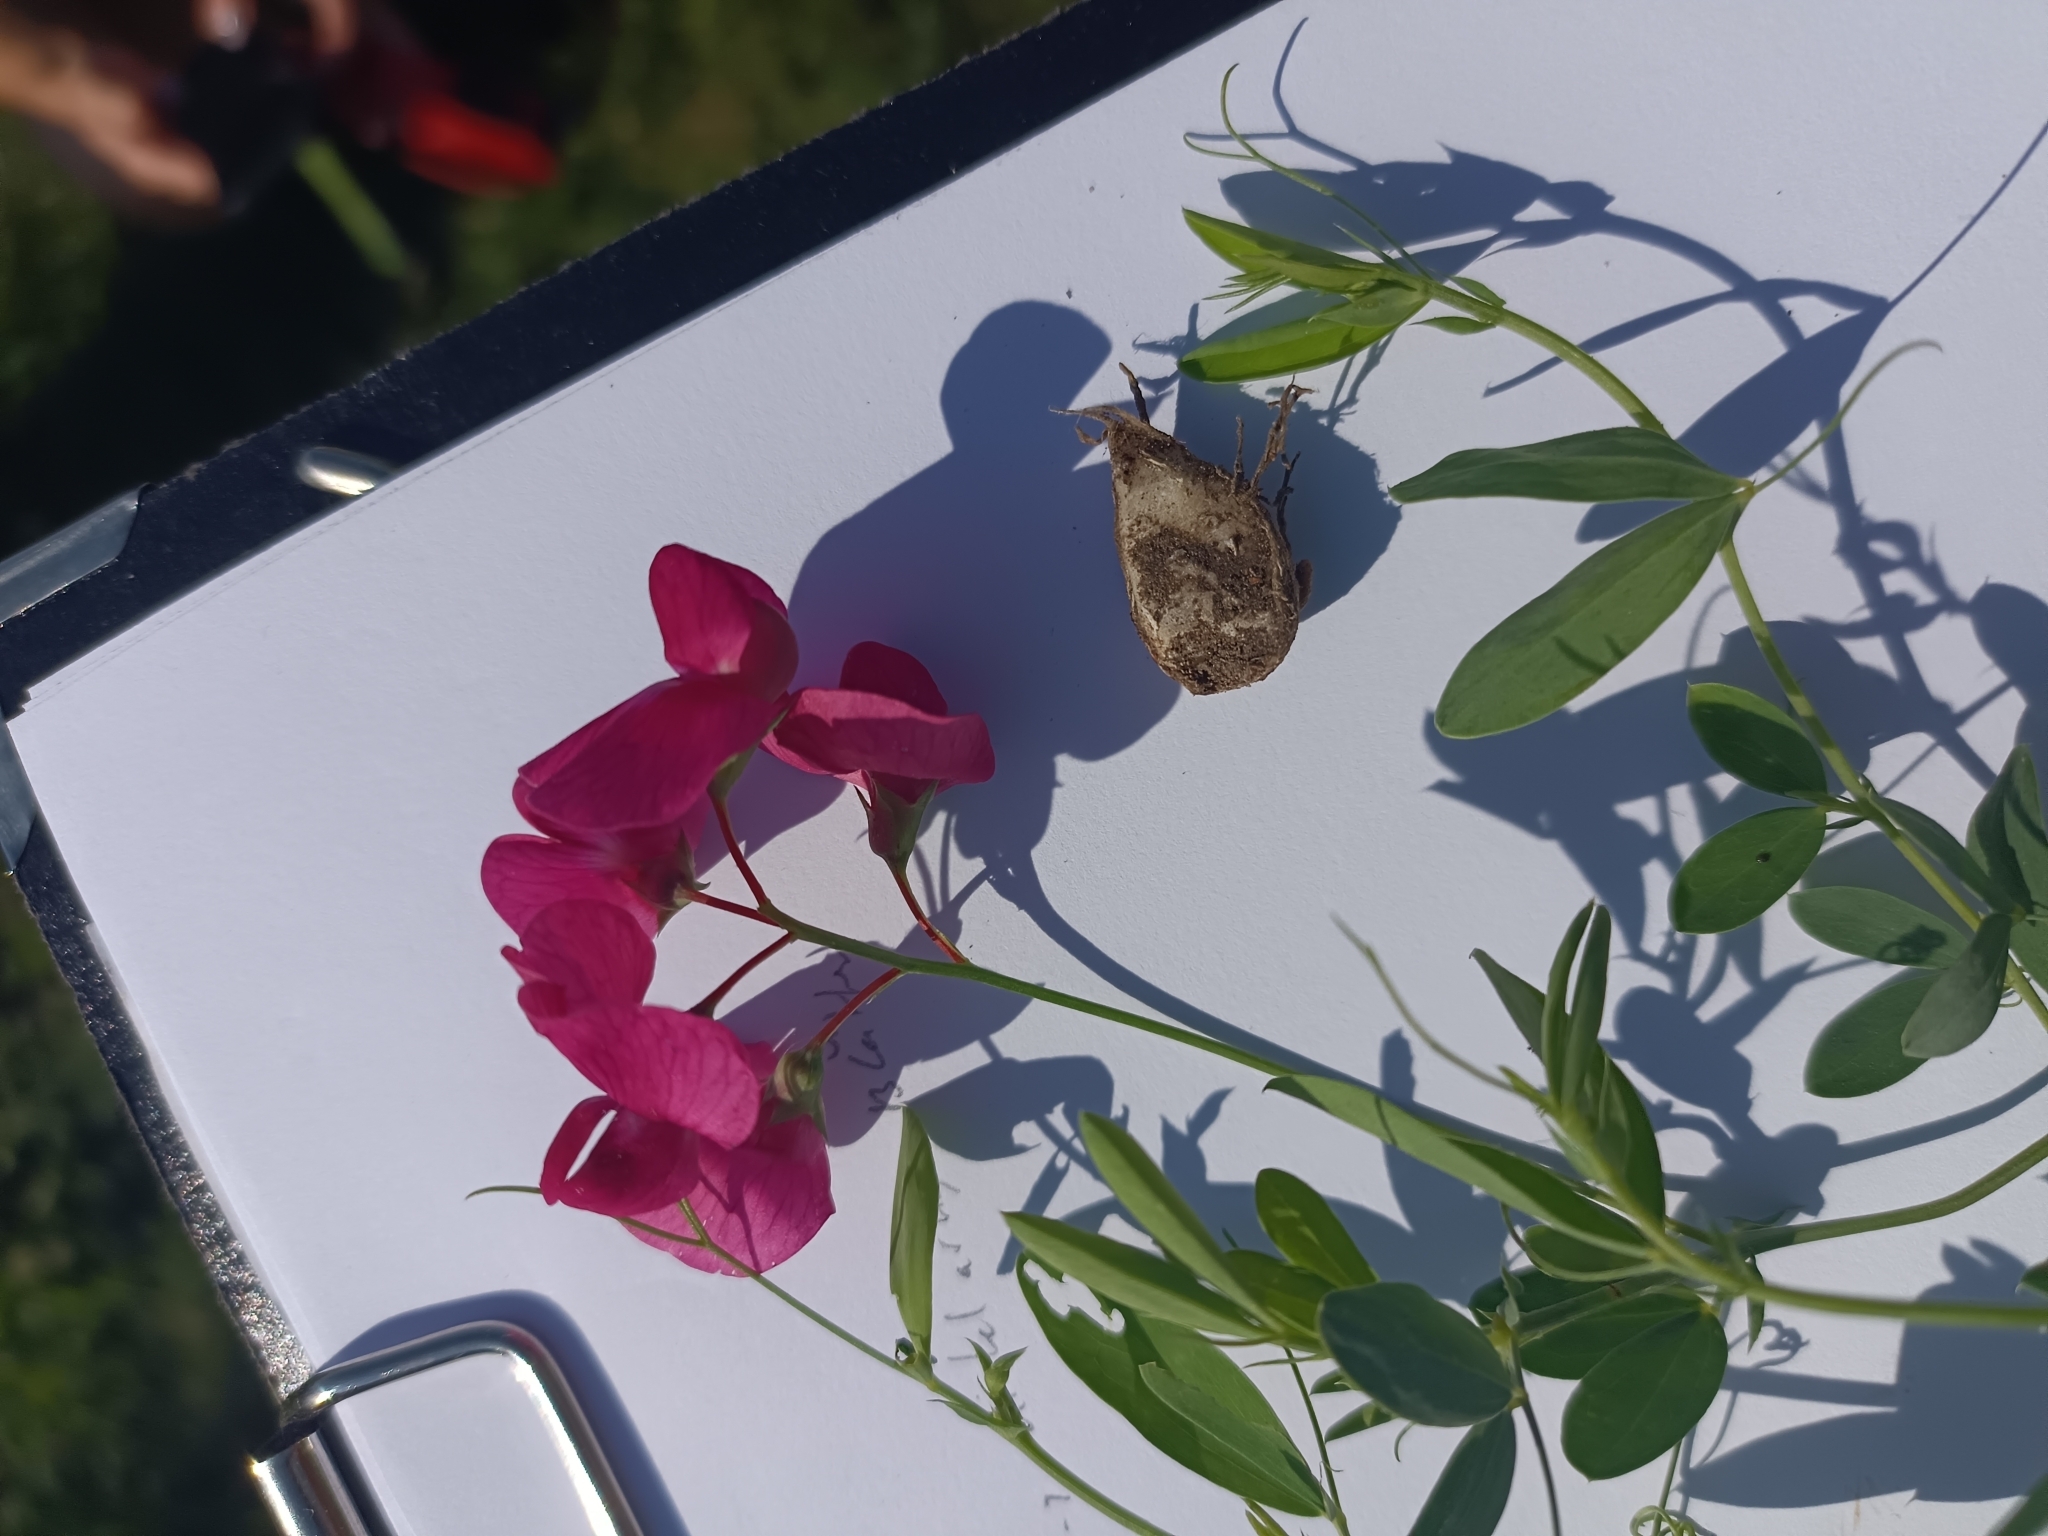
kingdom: Plantae
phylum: Tracheophyta
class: Magnoliopsida
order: Fabales
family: Fabaceae
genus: Lathyrus
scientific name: Lathyrus tuberosus
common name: Tuberous pea
